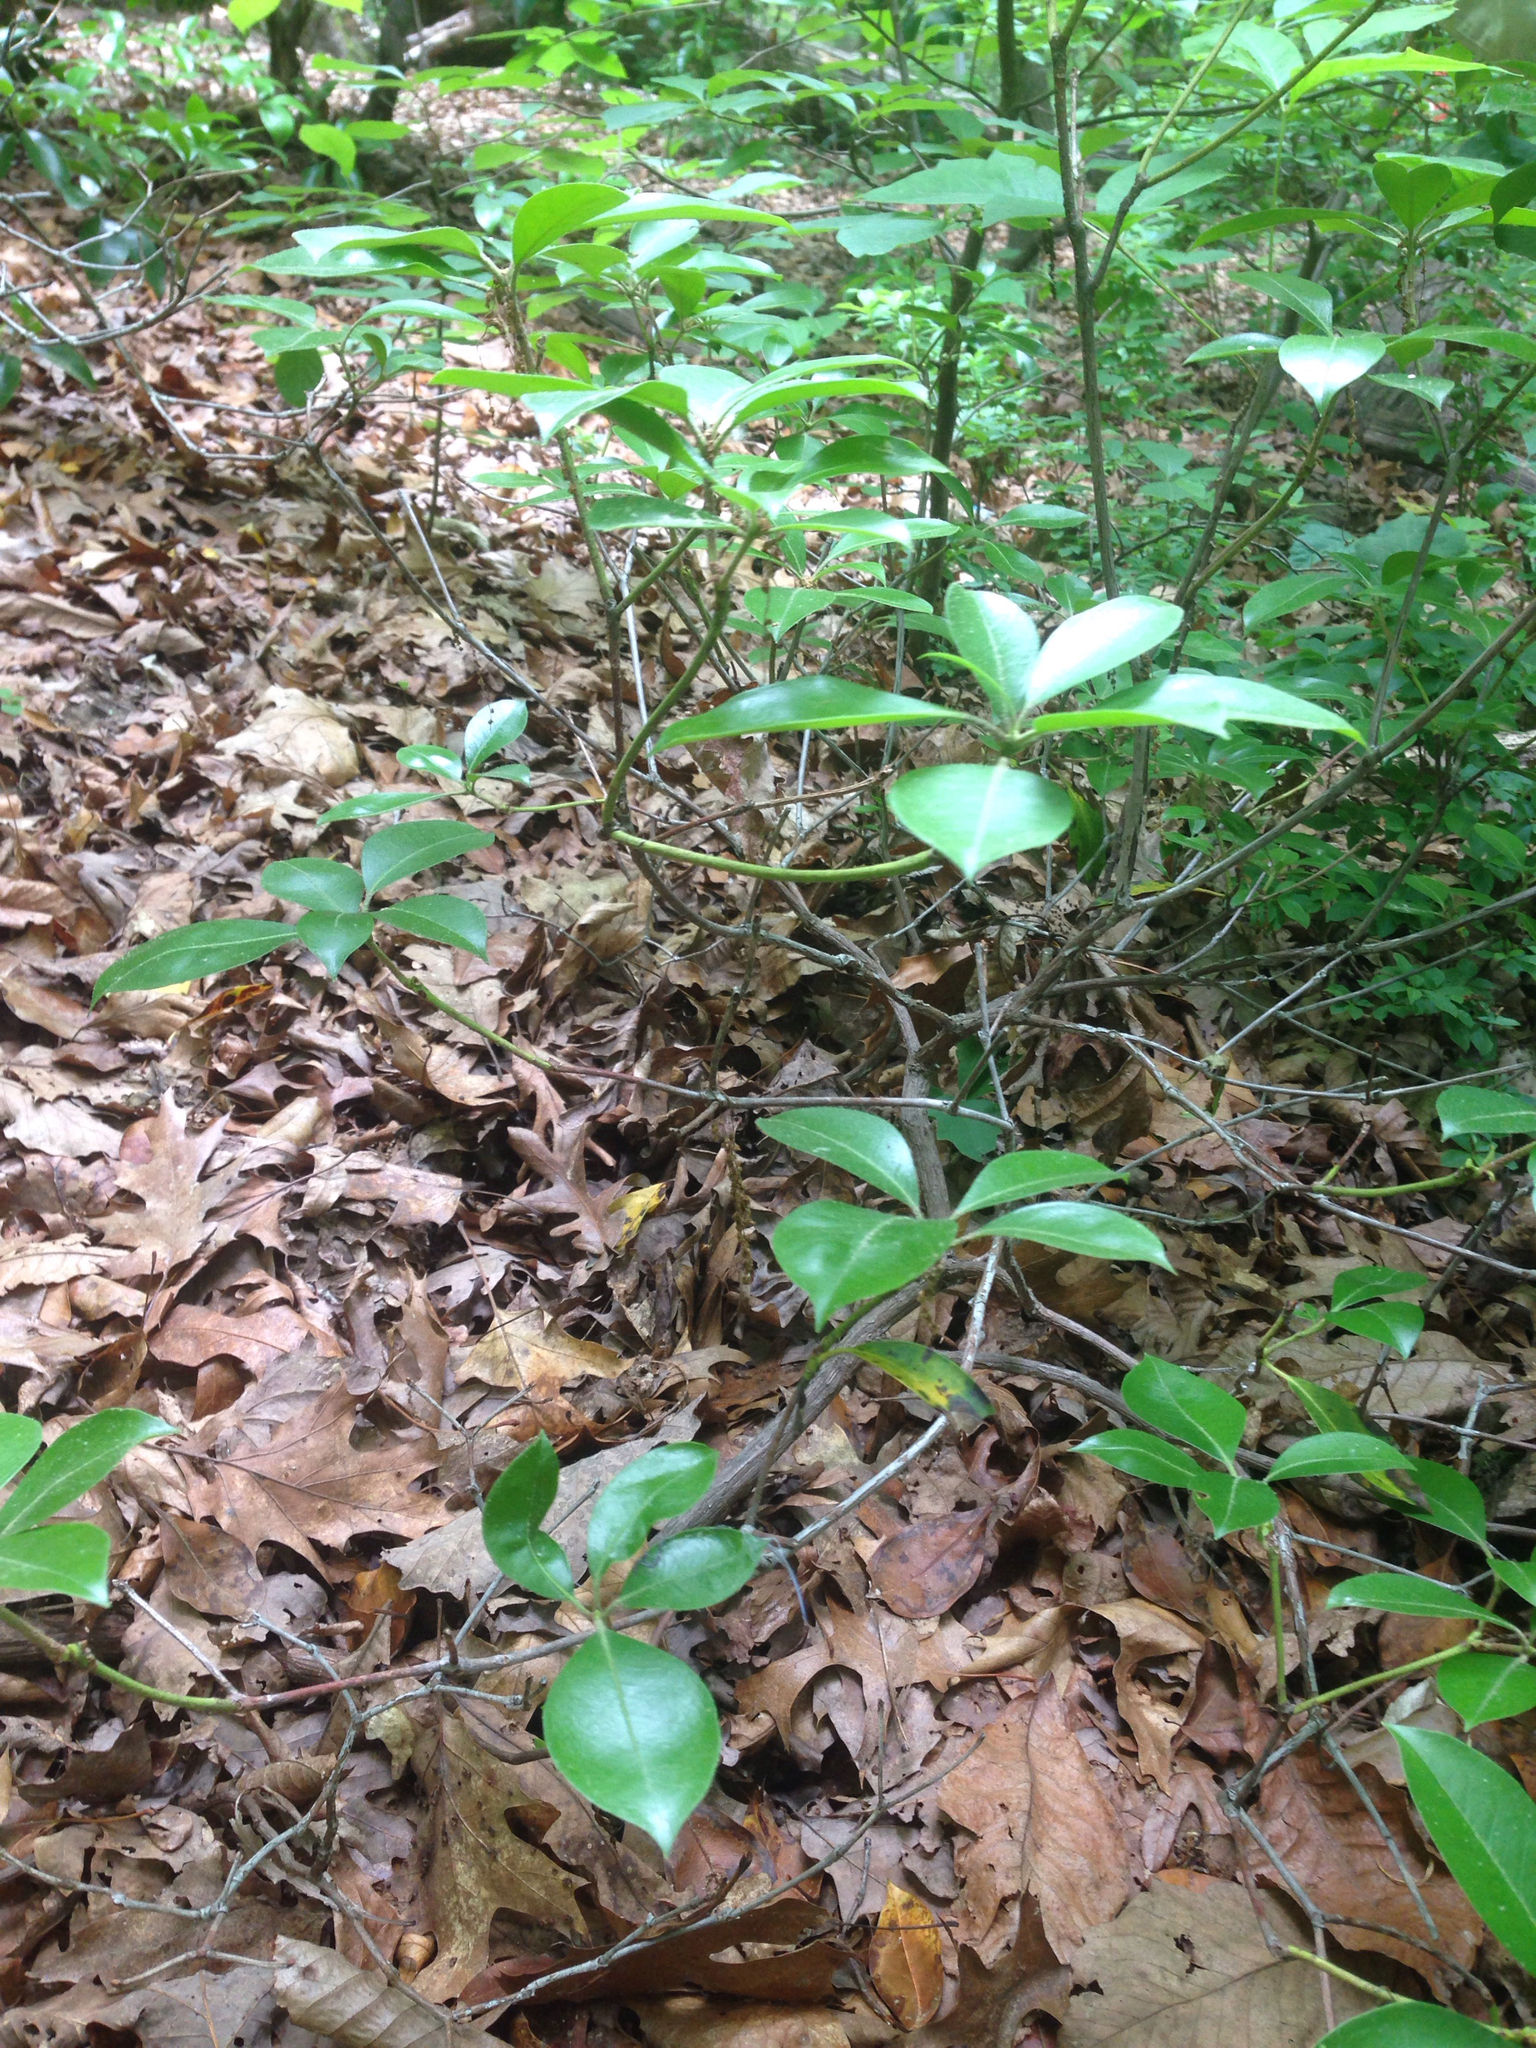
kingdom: Plantae
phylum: Tracheophyta
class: Magnoliopsida
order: Ericales
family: Ericaceae
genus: Kalmia
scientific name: Kalmia latifolia
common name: Mountain-laurel
